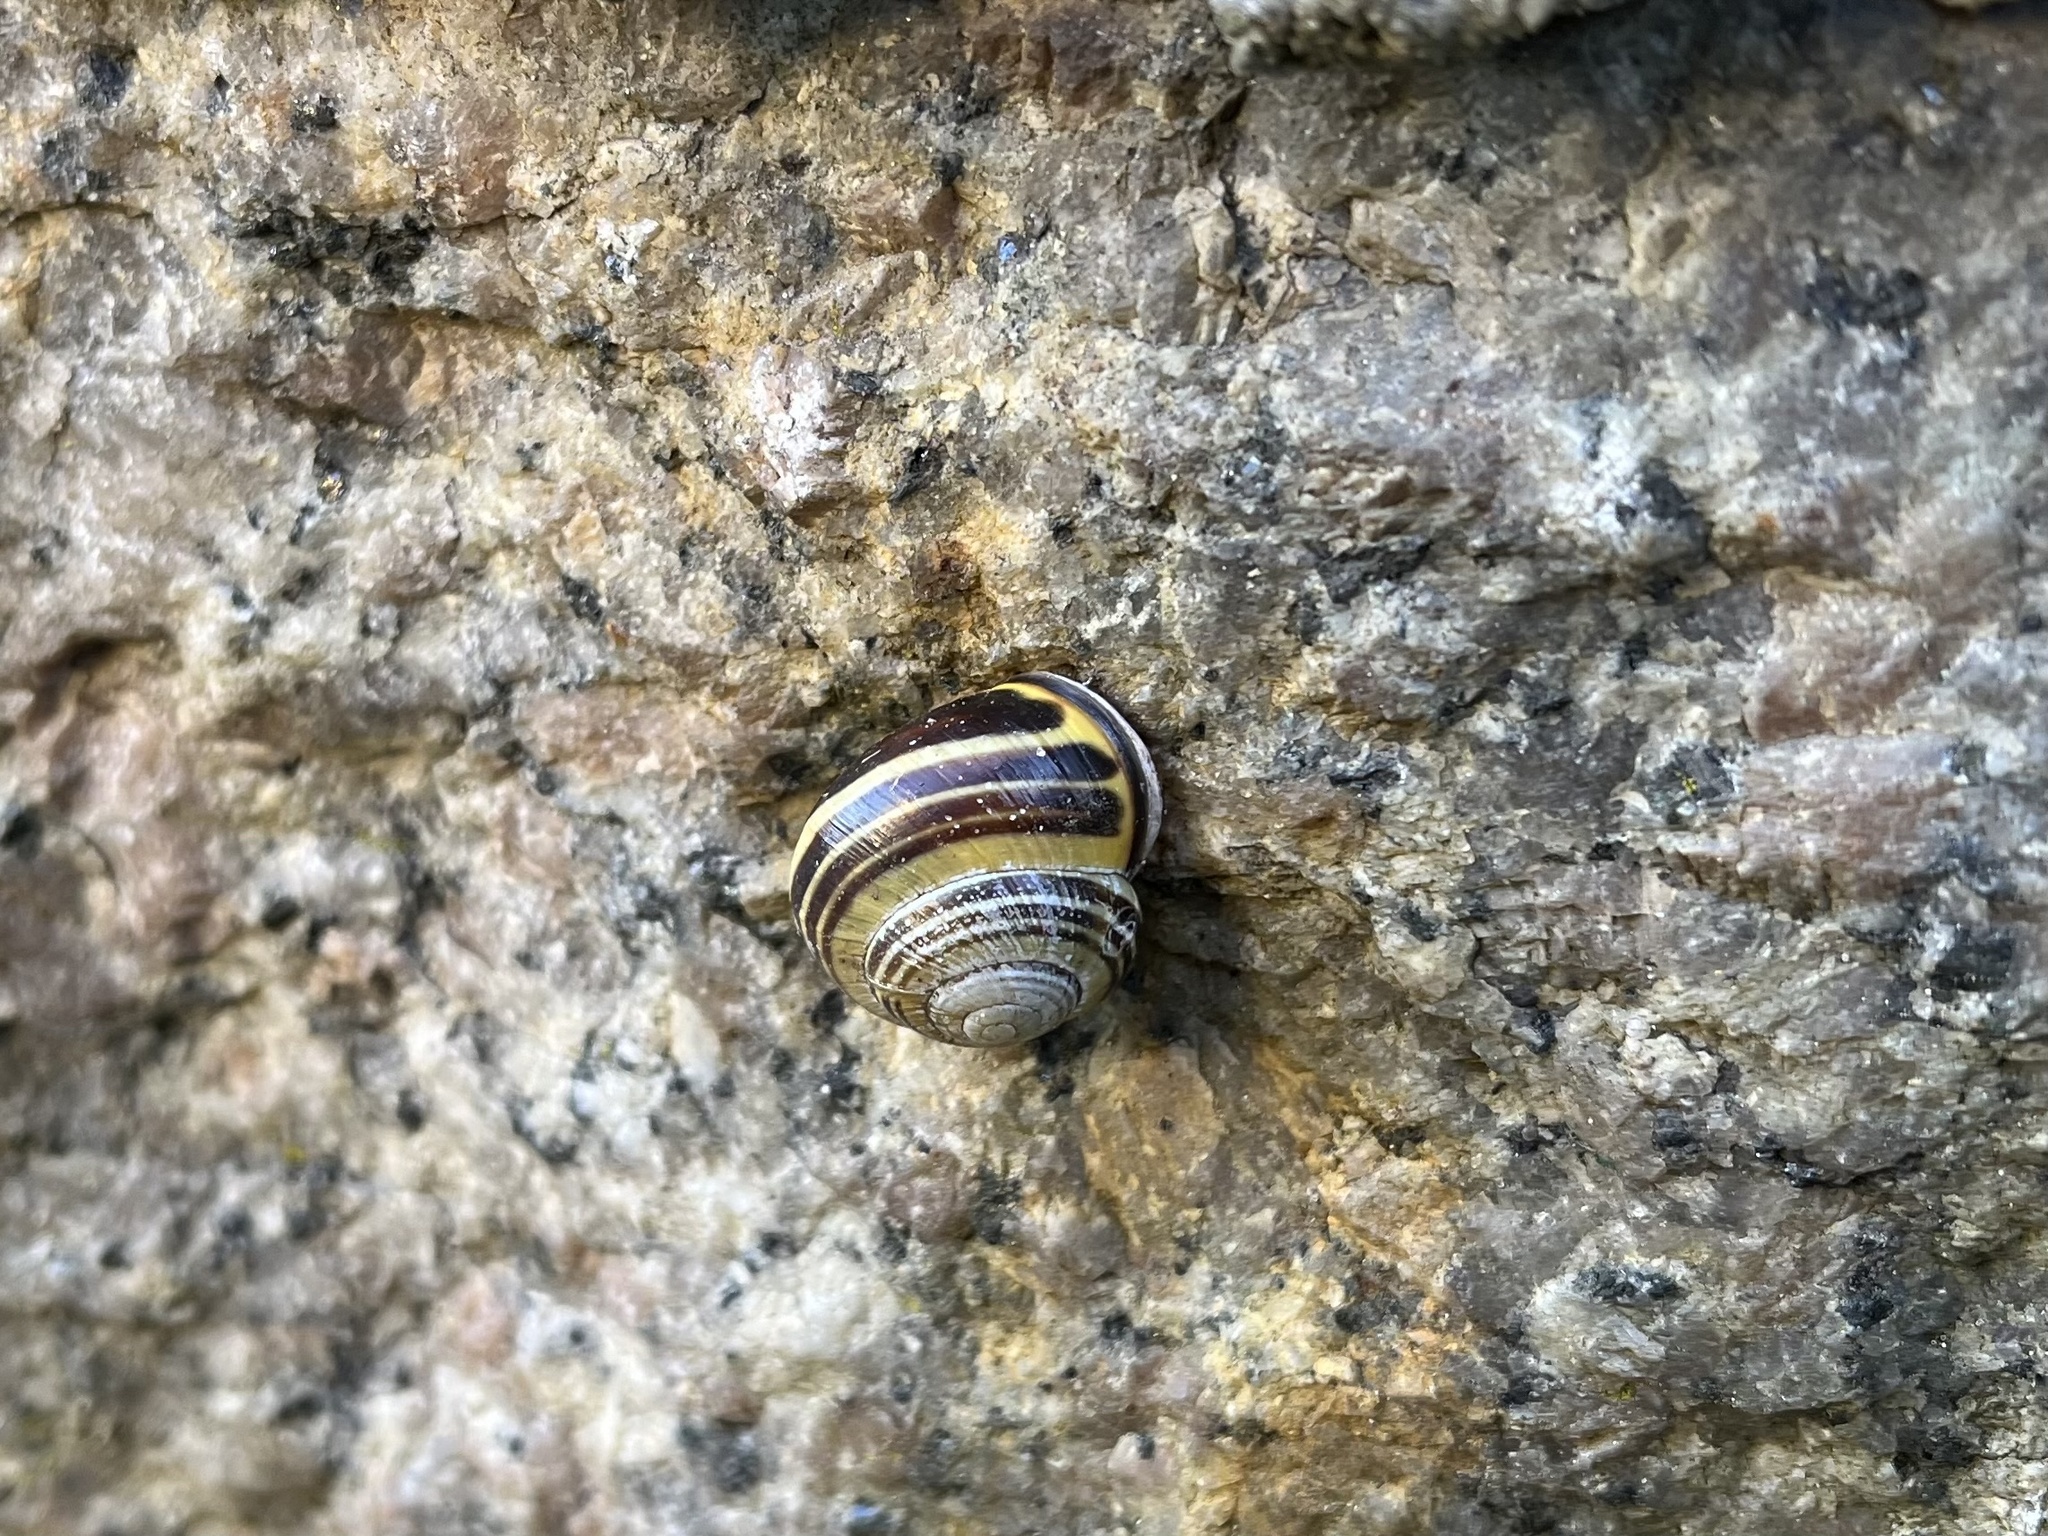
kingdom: Animalia
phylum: Mollusca
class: Gastropoda
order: Stylommatophora
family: Helicidae
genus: Cepaea
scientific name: Cepaea nemoralis
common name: Grovesnail
